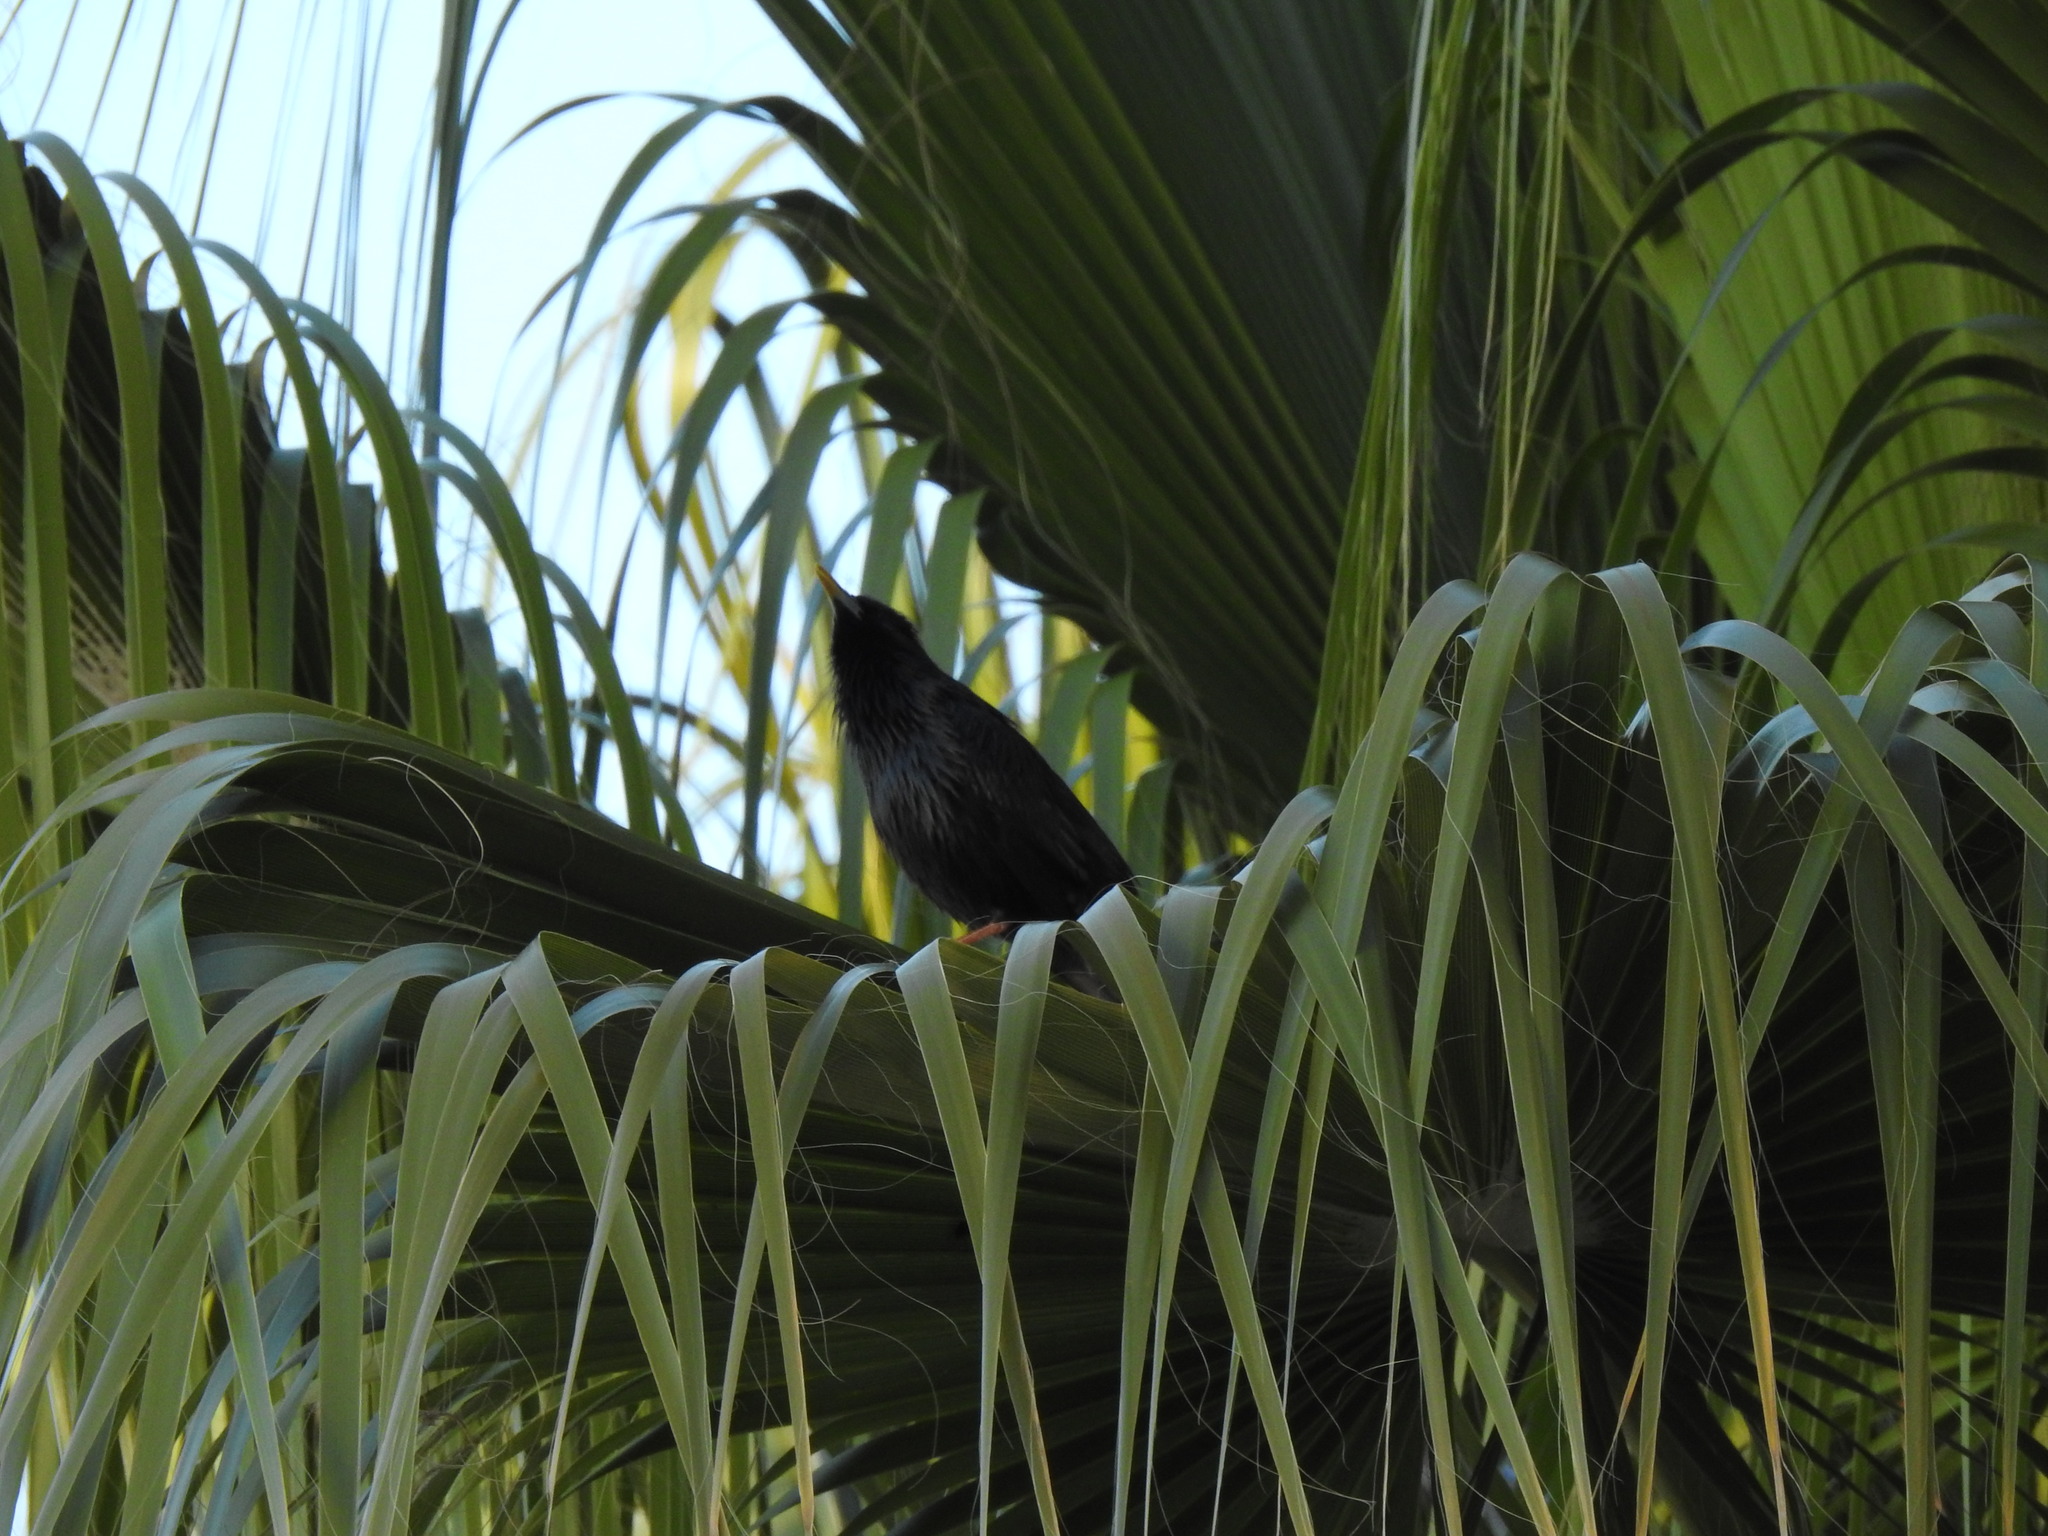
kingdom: Animalia
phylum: Chordata
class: Aves
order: Passeriformes
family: Sturnidae
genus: Sturnus
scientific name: Sturnus unicolor
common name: Spotless starling
